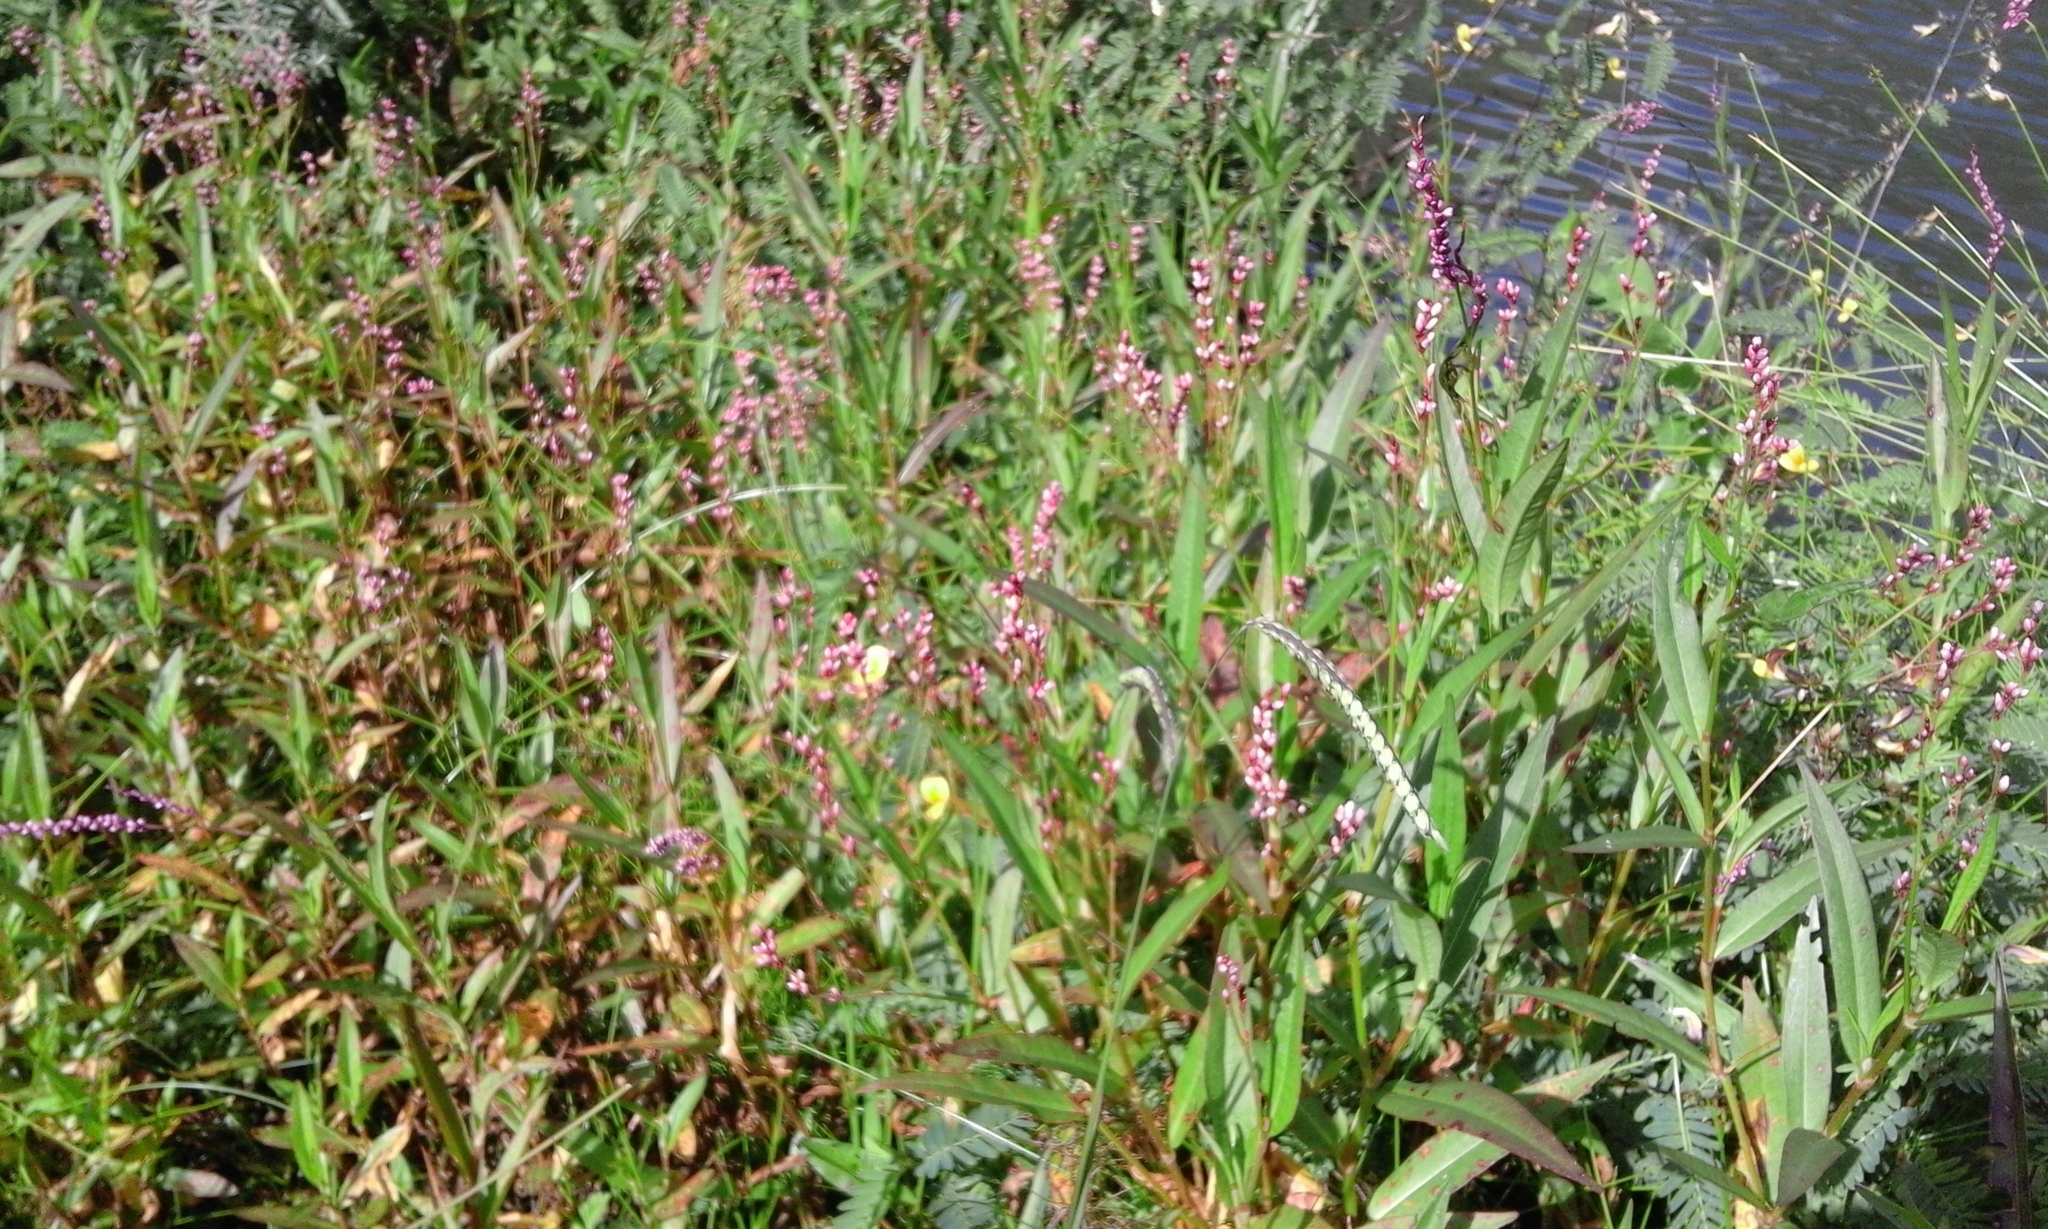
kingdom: Plantae
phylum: Tracheophyta
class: Magnoliopsida
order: Caryophyllales
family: Polygonaceae
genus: Persicaria
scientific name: Persicaria decipiens
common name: Willow-weed
